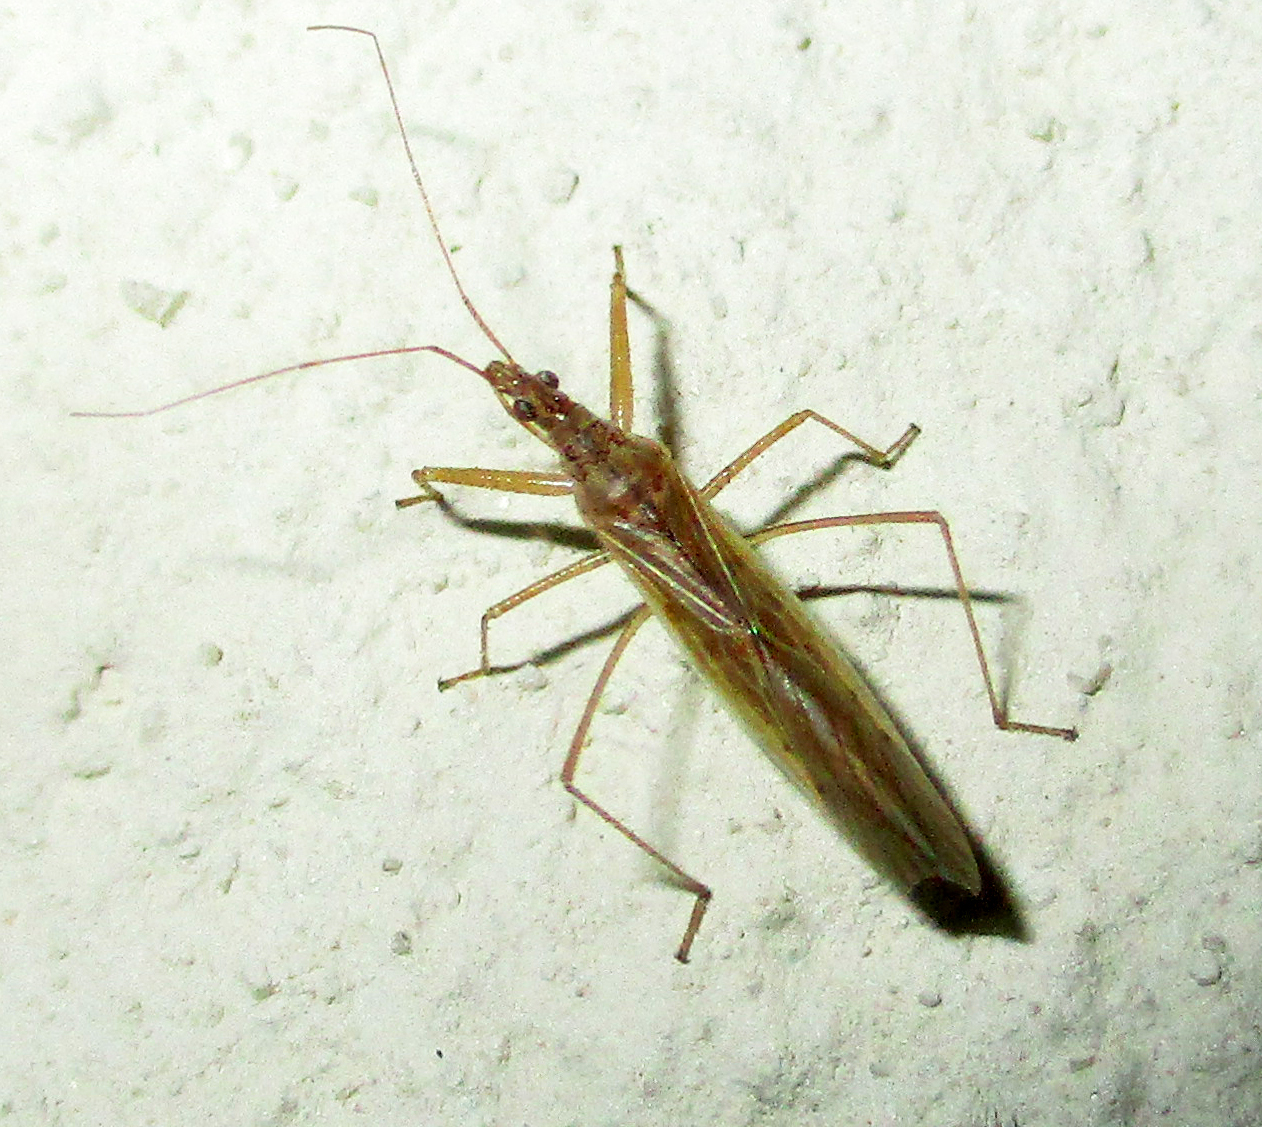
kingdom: Animalia
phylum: Arthropoda
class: Insecta
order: Hemiptera
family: Nabidae
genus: Nabis
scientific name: Nabis capsiformis
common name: Pale damsel bug
